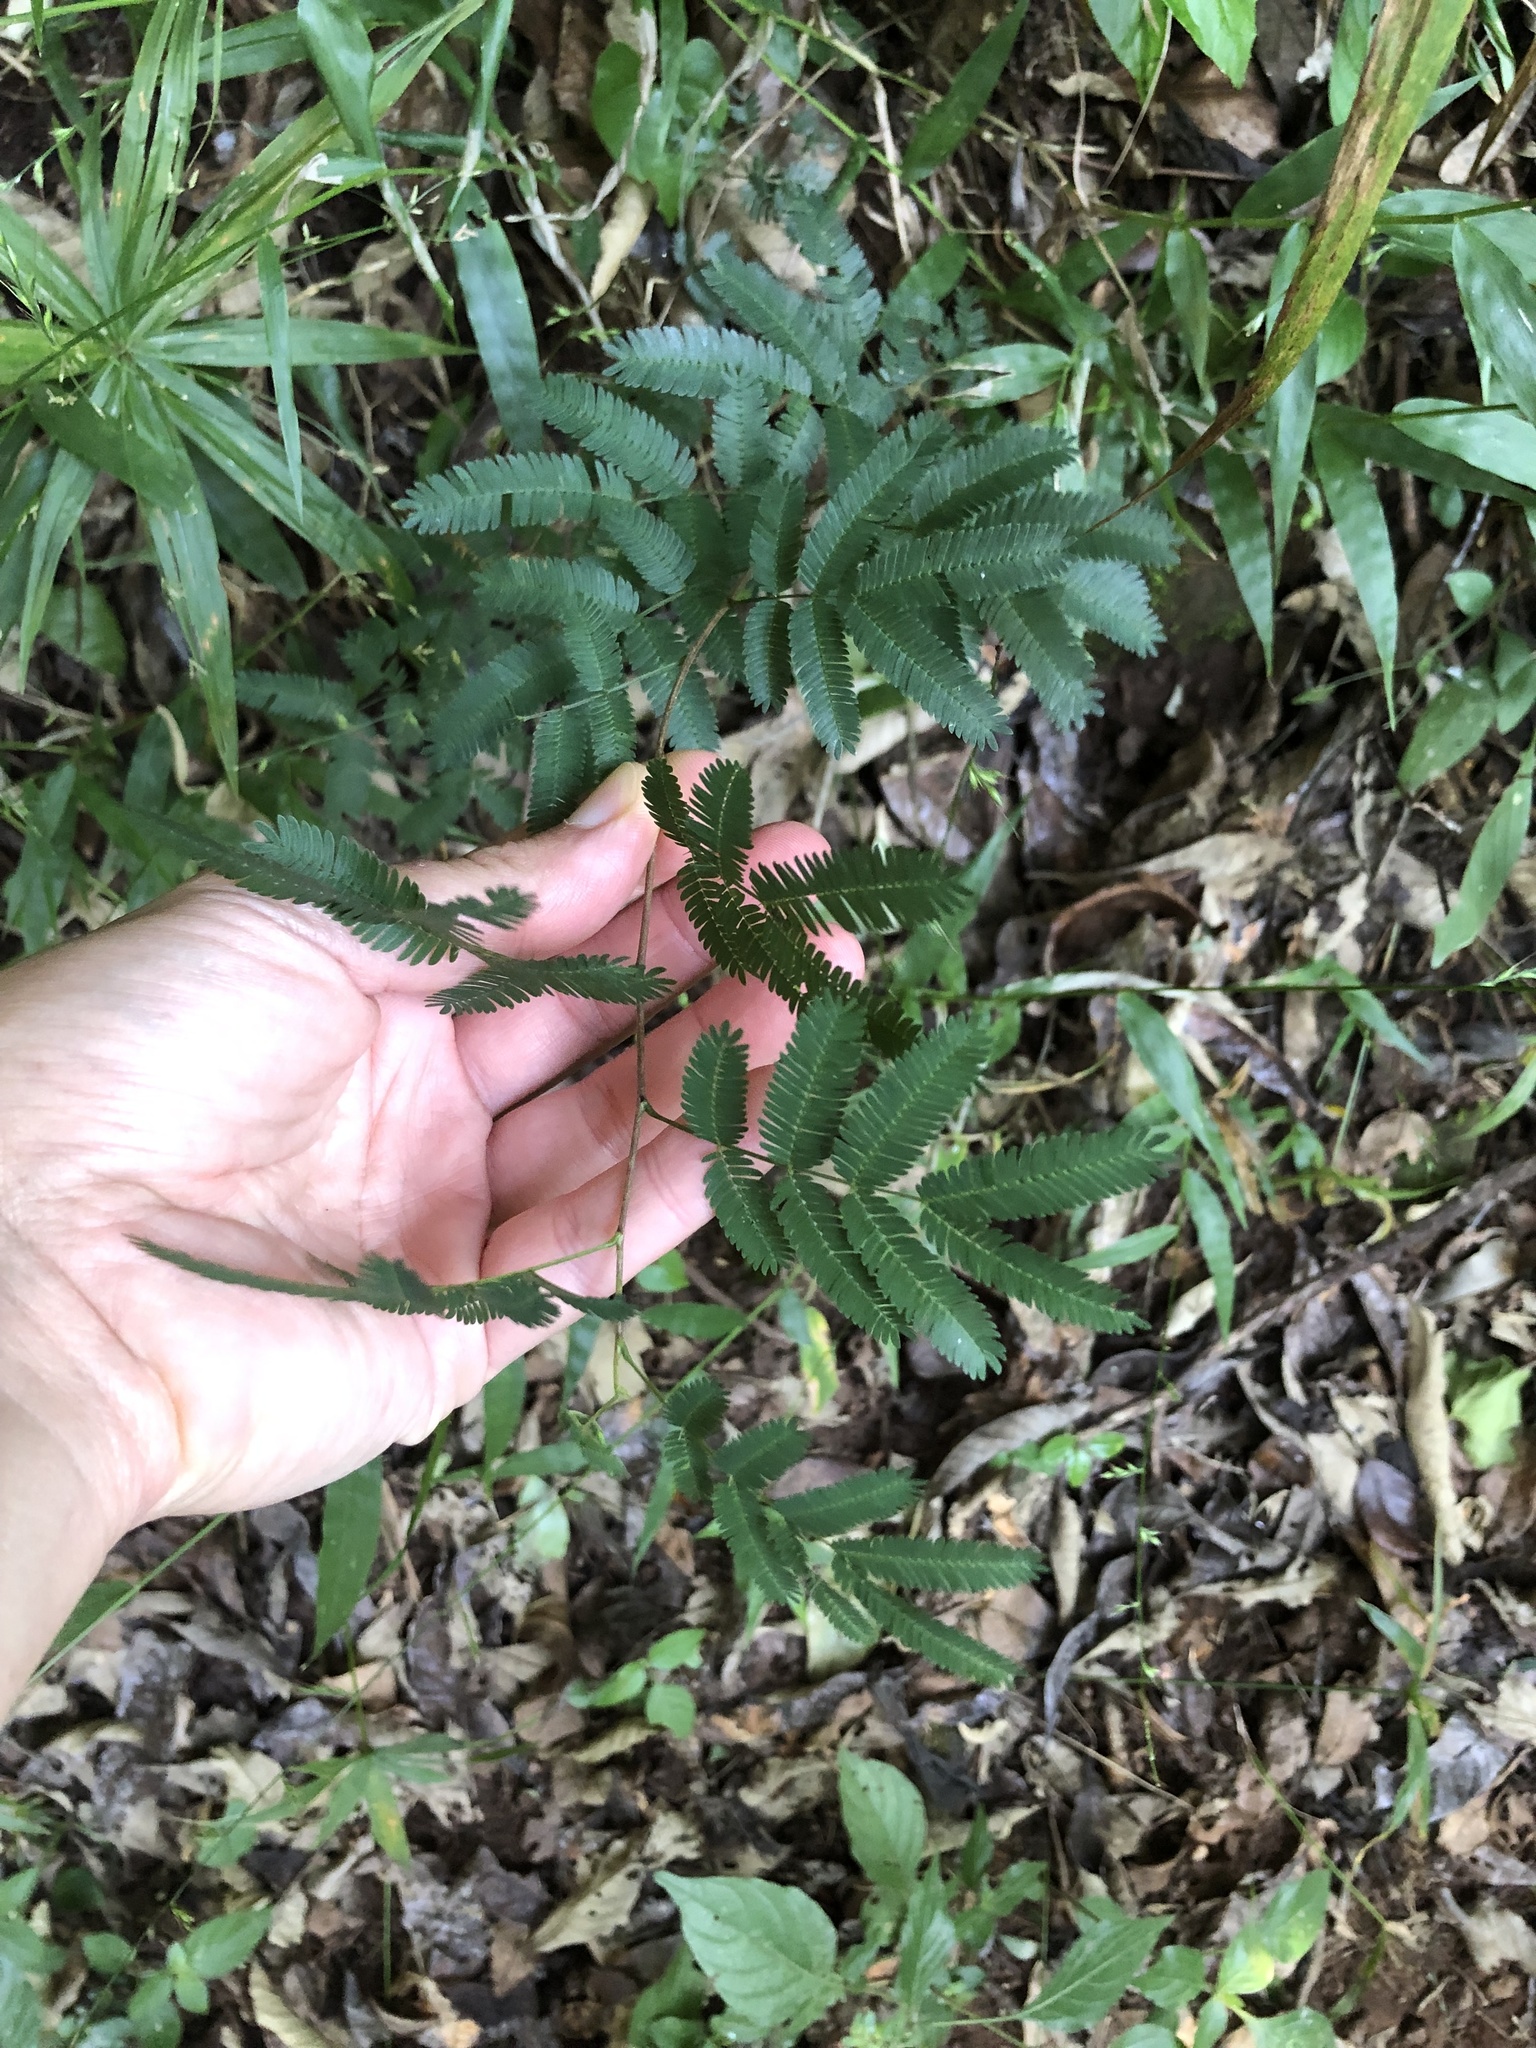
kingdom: Plantae
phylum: Tracheophyta
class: Magnoliopsida
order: Fabales
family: Fabaceae
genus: Senegalia
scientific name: Senegalia ataxacantha
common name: Flame acacia
